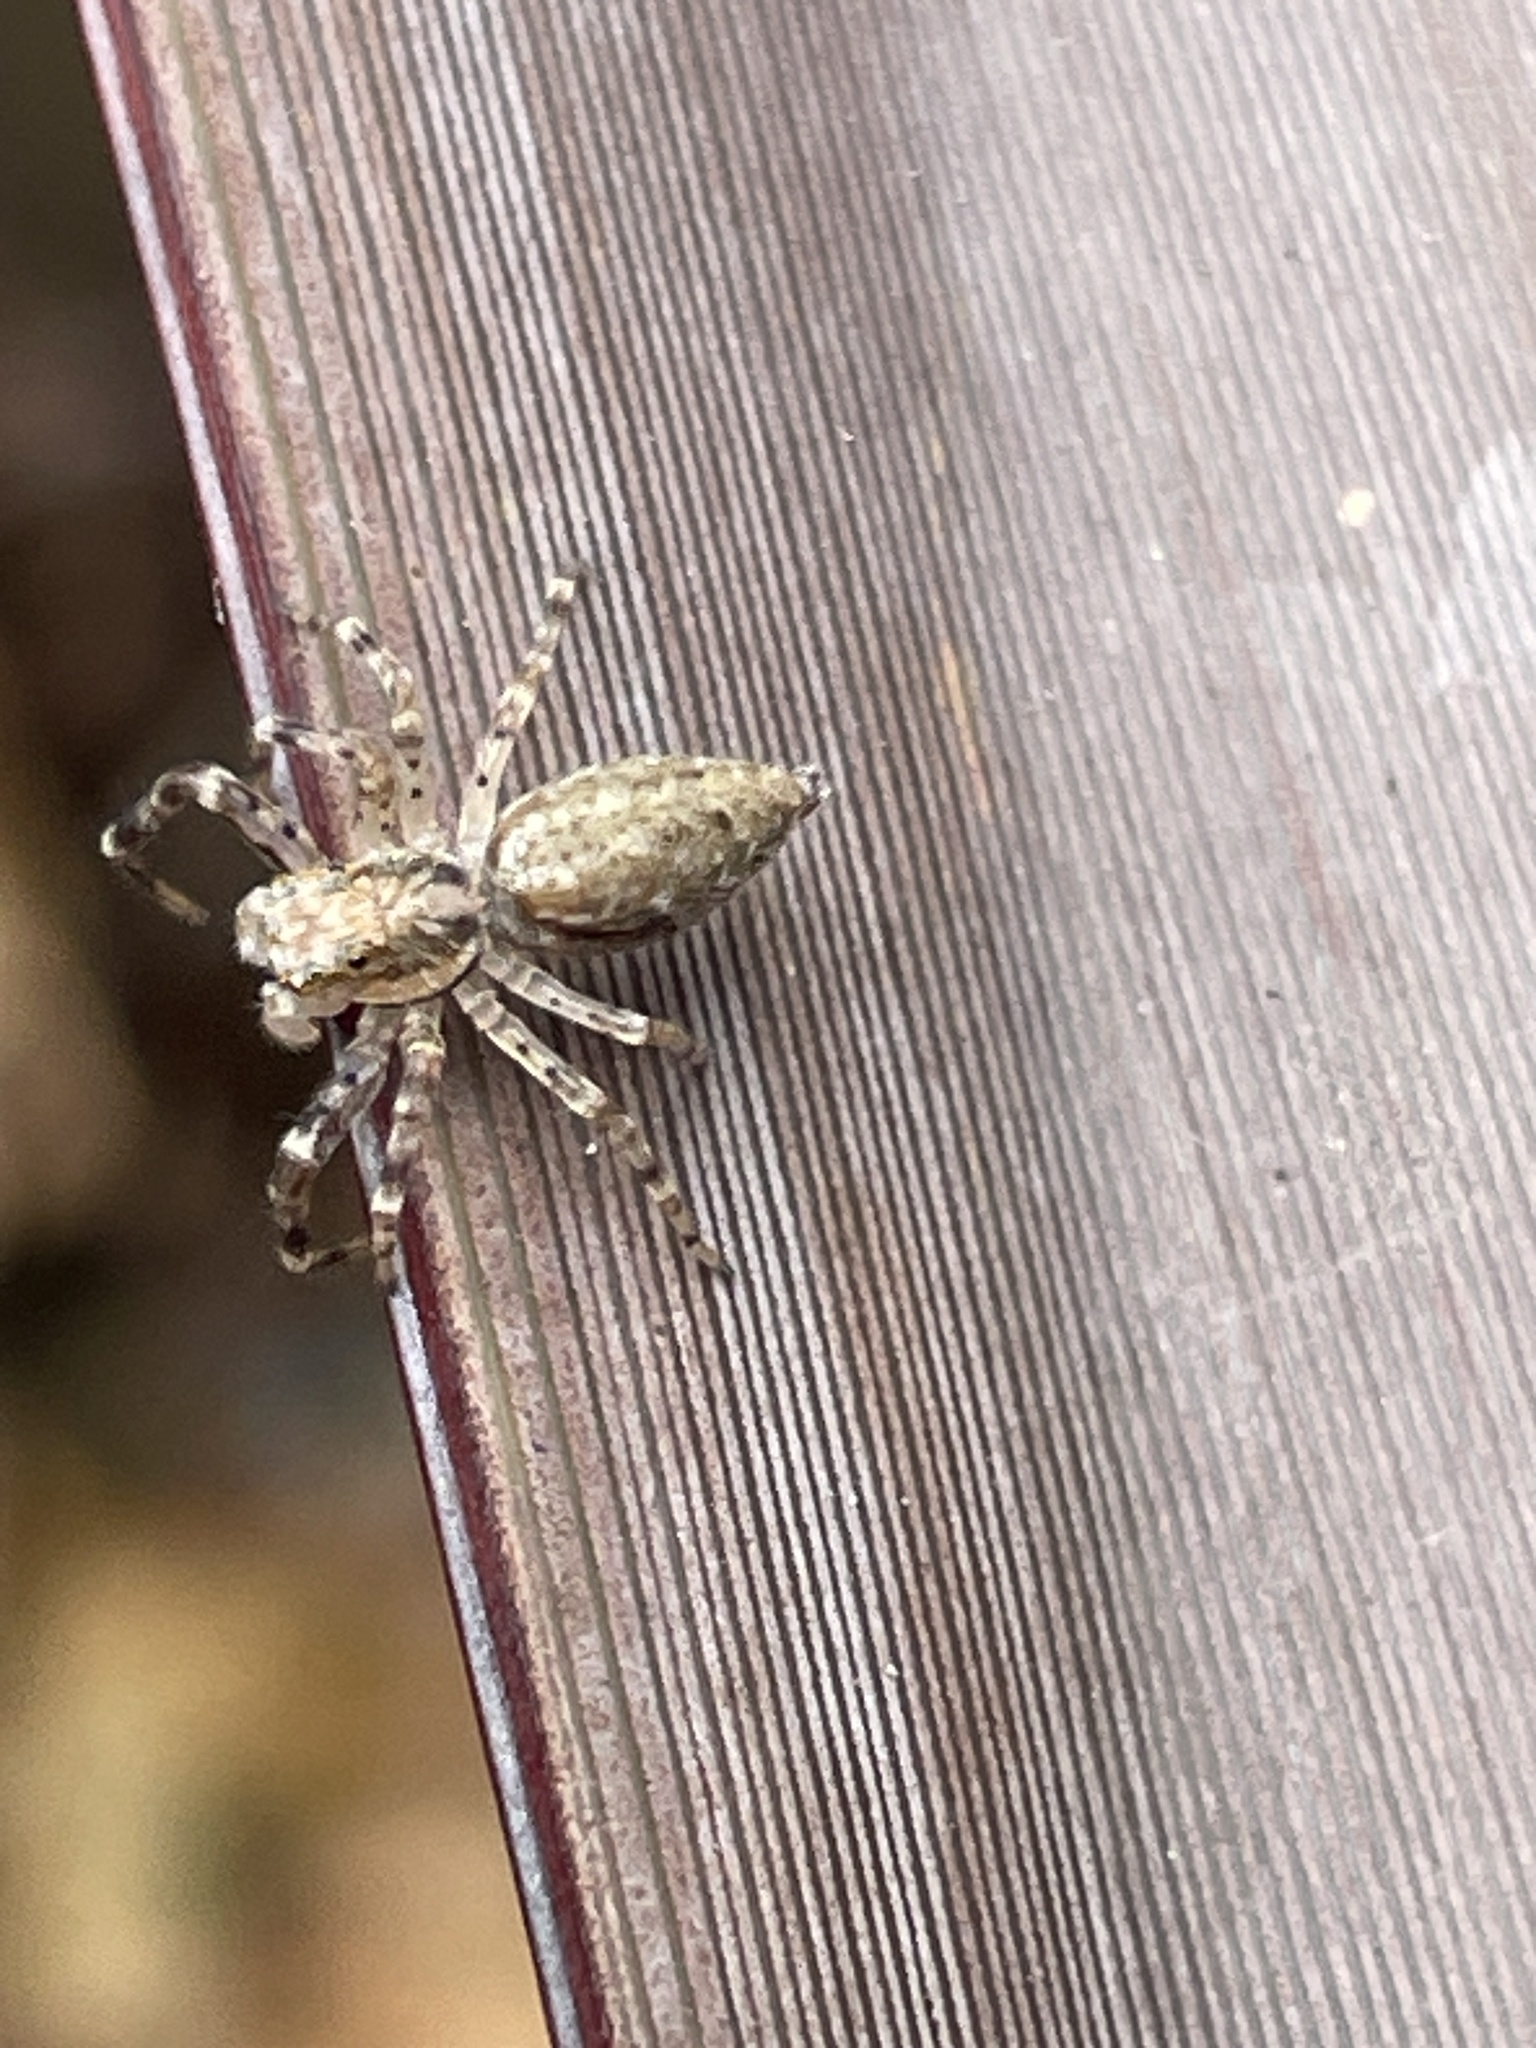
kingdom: Animalia
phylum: Arthropoda
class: Arachnida
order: Araneae
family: Salticidae
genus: Helpis
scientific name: Helpis minitabunda
